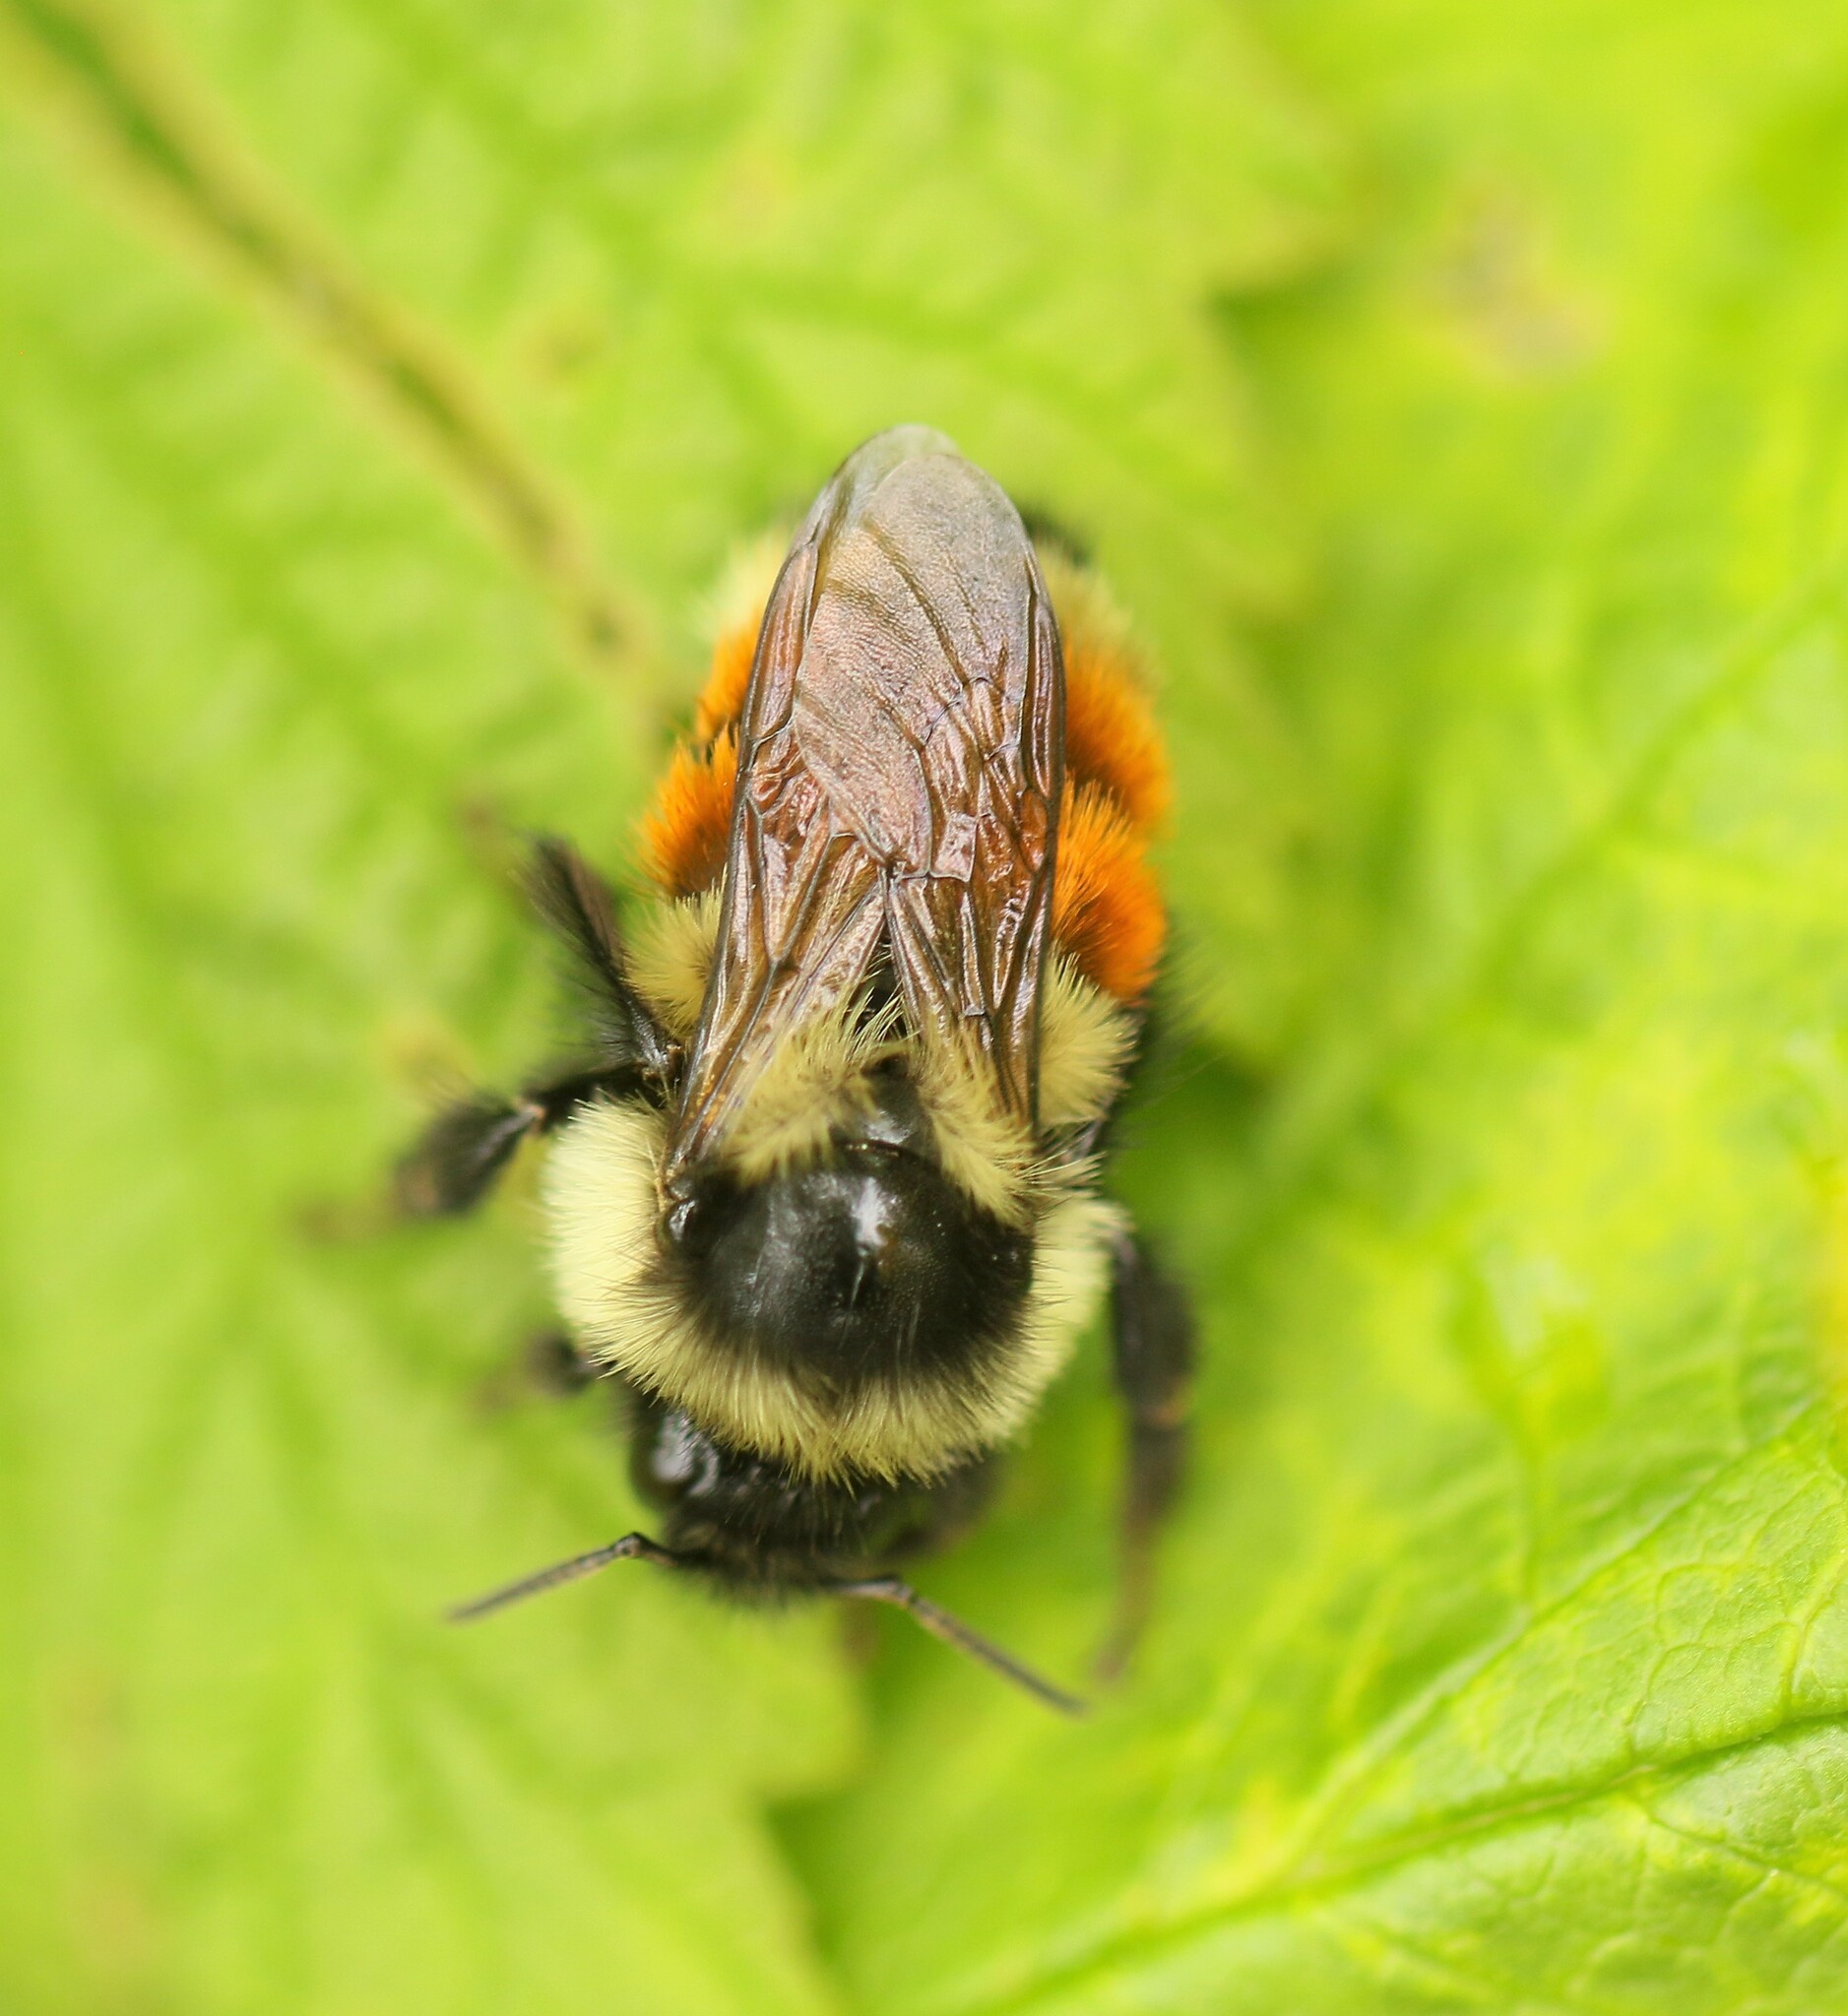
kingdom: Animalia
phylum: Arthropoda
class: Insecta
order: Hymenoptera
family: Apidae
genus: Bombus
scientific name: Bombus ternarius
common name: Tri-colored bumble bee
